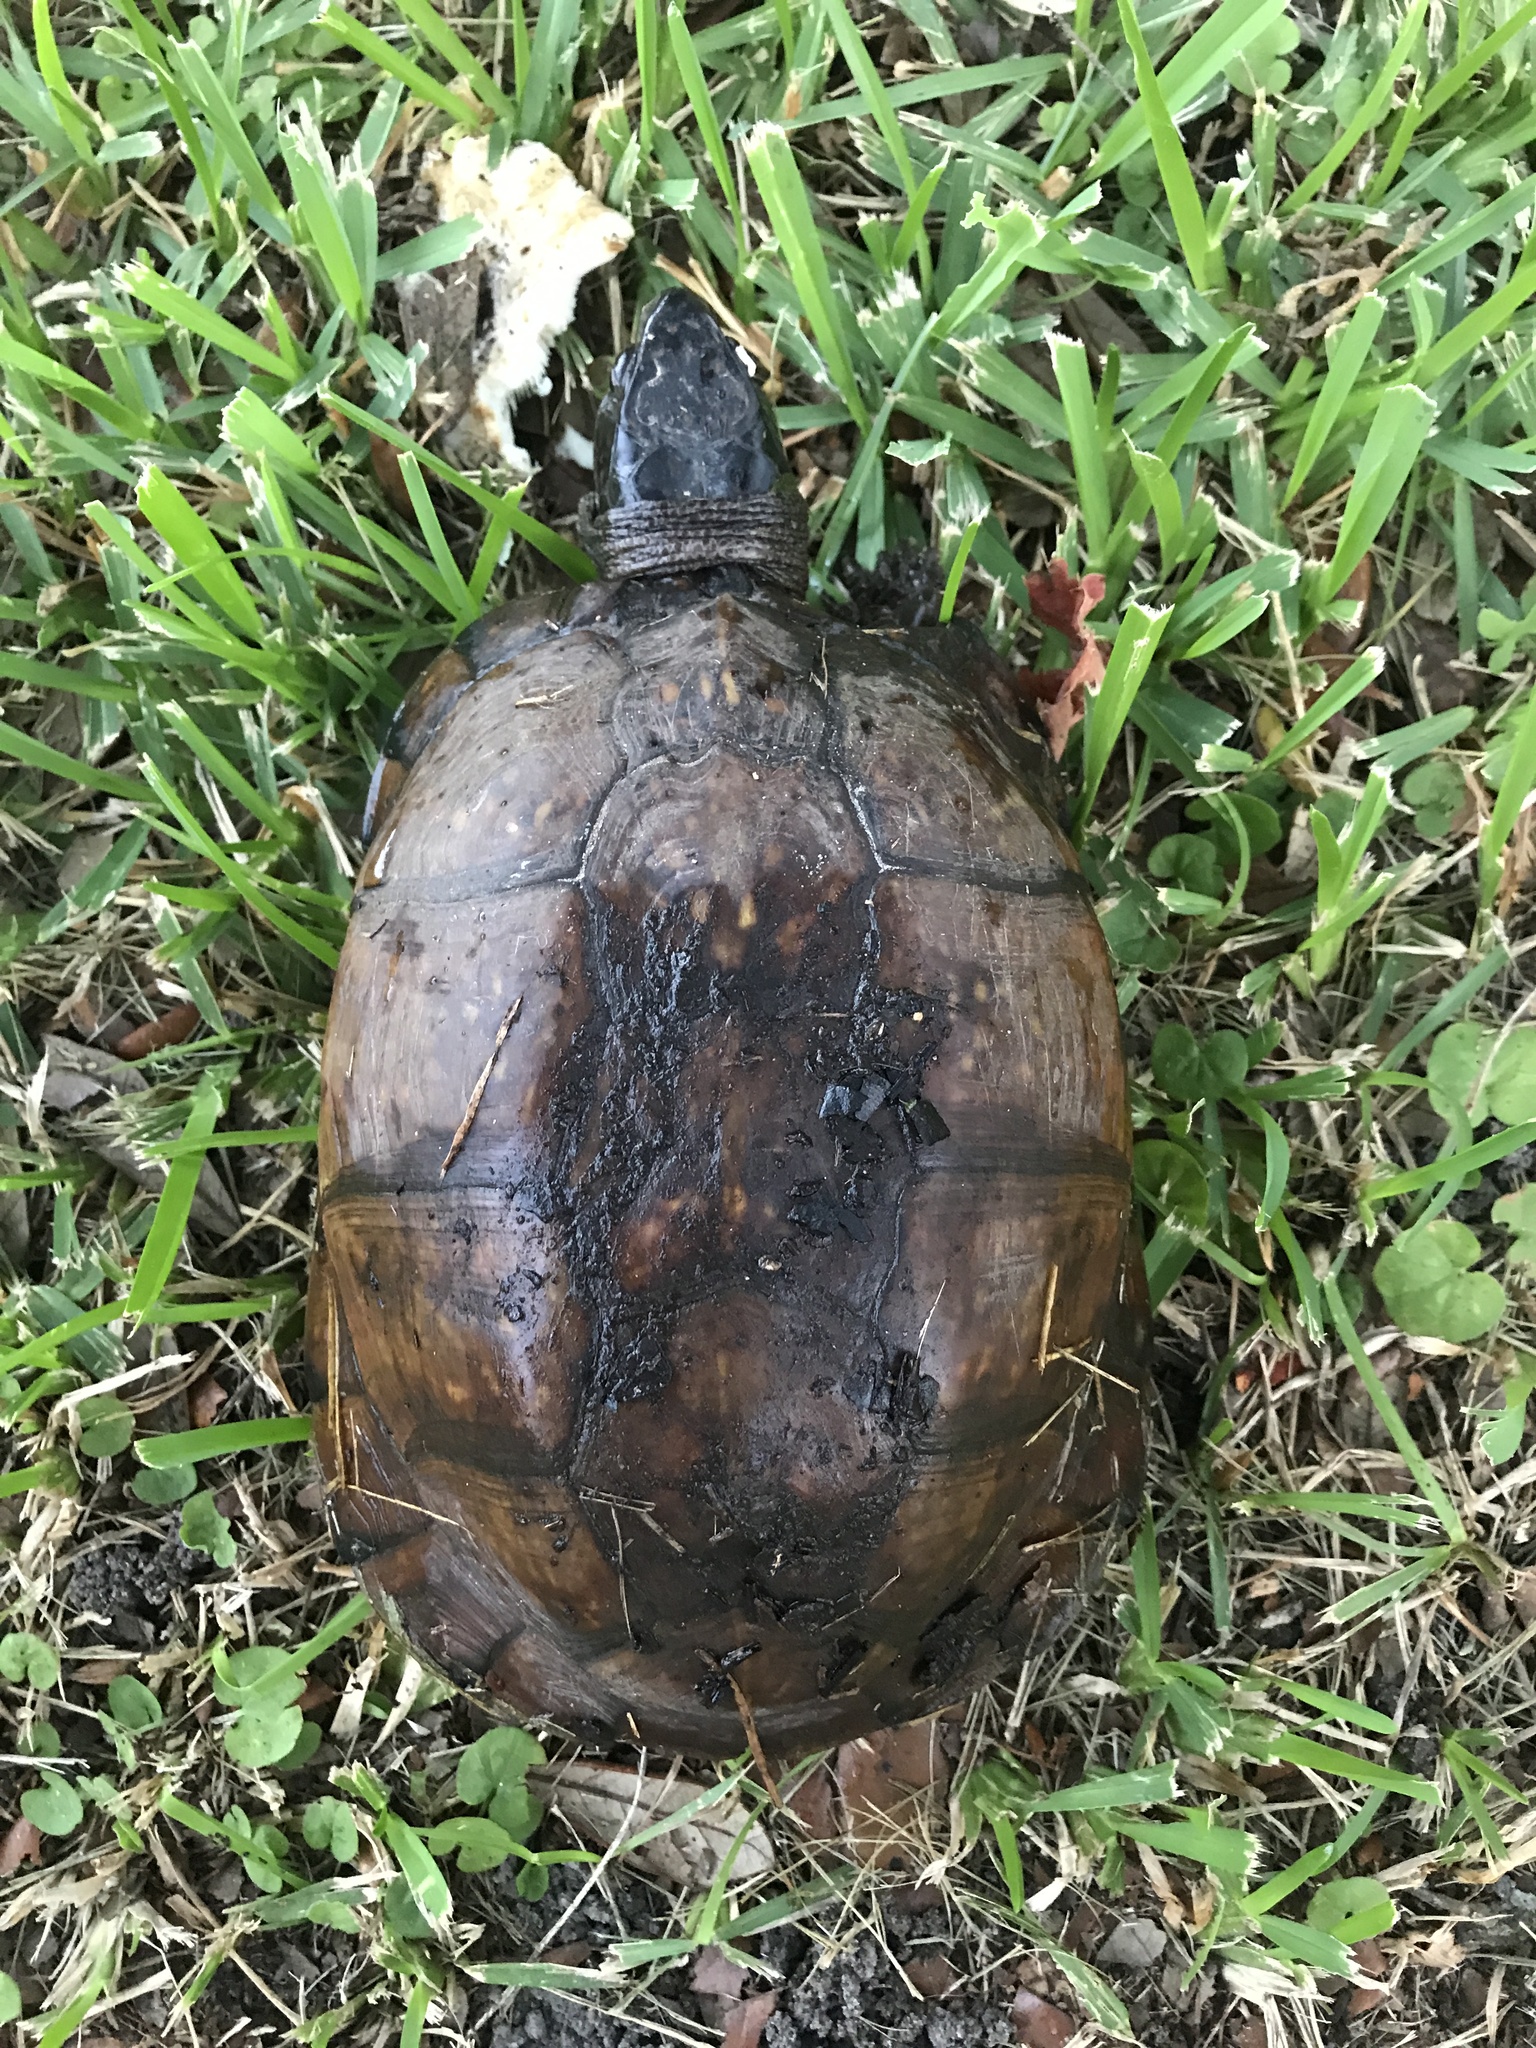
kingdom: Animalia
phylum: Chordata
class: Testudines
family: Emydidae
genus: Terrapene
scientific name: Terrapene carolina
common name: Common box turtle
